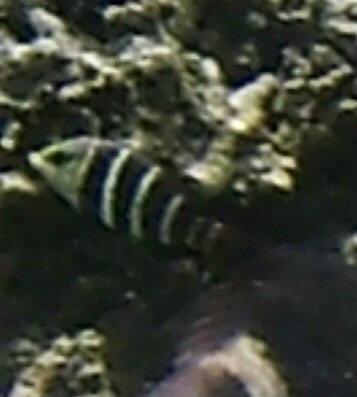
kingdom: Animalia
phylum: Chordata
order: Perciformes
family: Labridae
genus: Hemigymnus
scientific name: Hemigymnus fasciatus
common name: Barred thicklip
